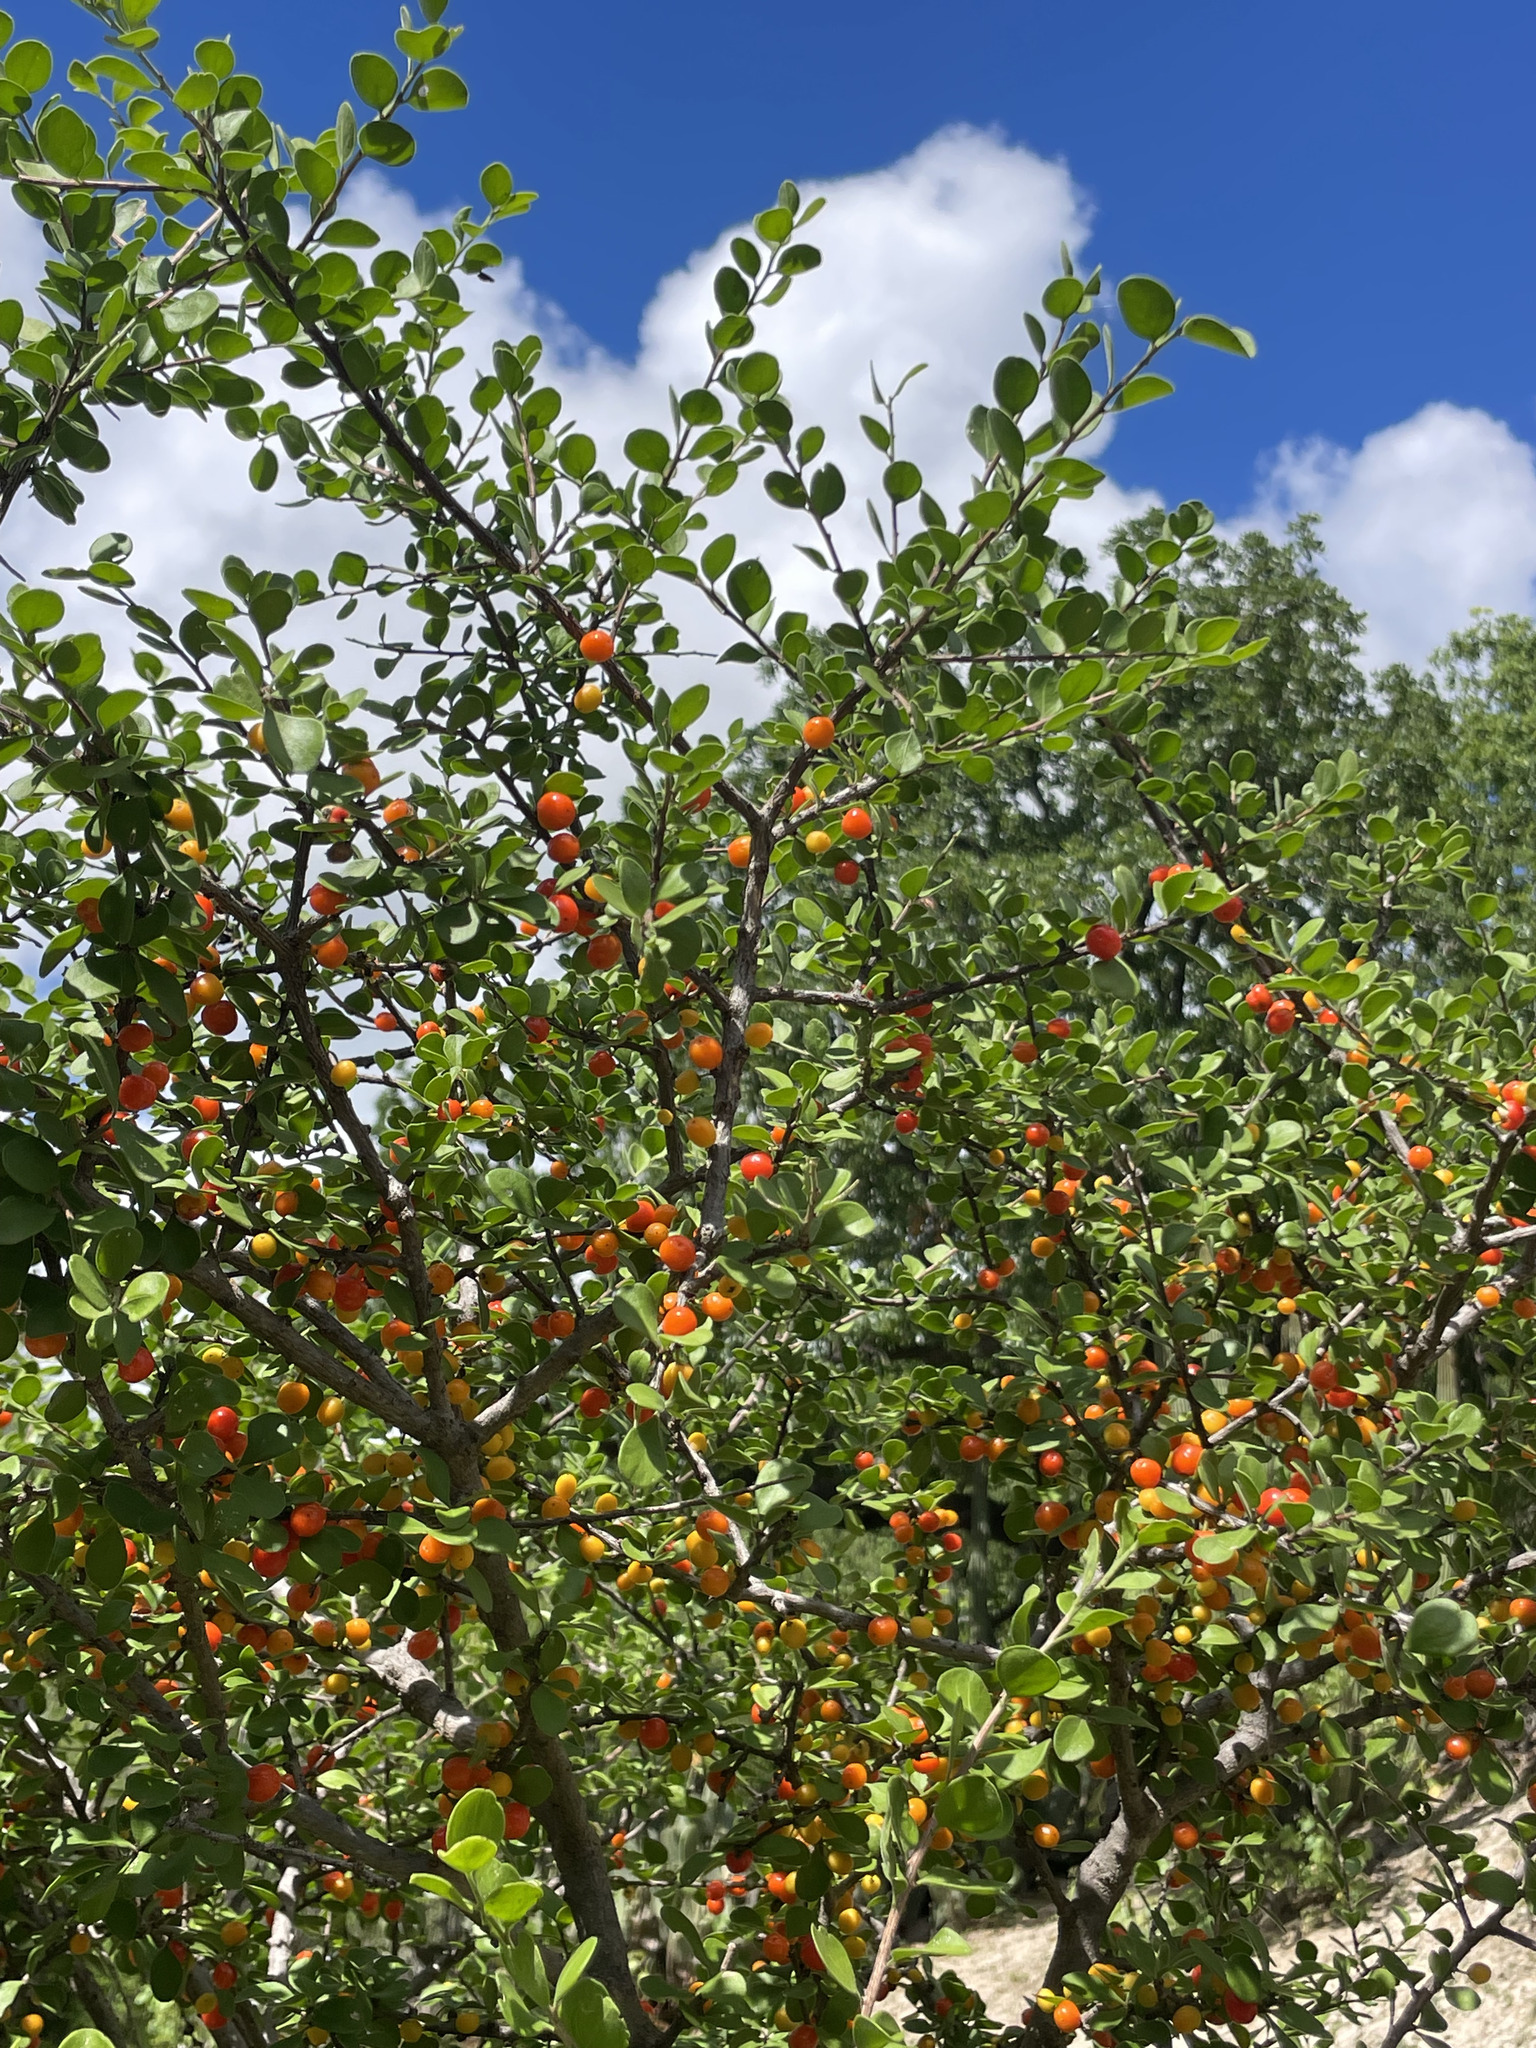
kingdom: Plantae
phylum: Tracheophyta
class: Magnoliopsida
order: Celastrales
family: Celastraceae
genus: Schaefferia
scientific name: Schaefferia cuneifolia
